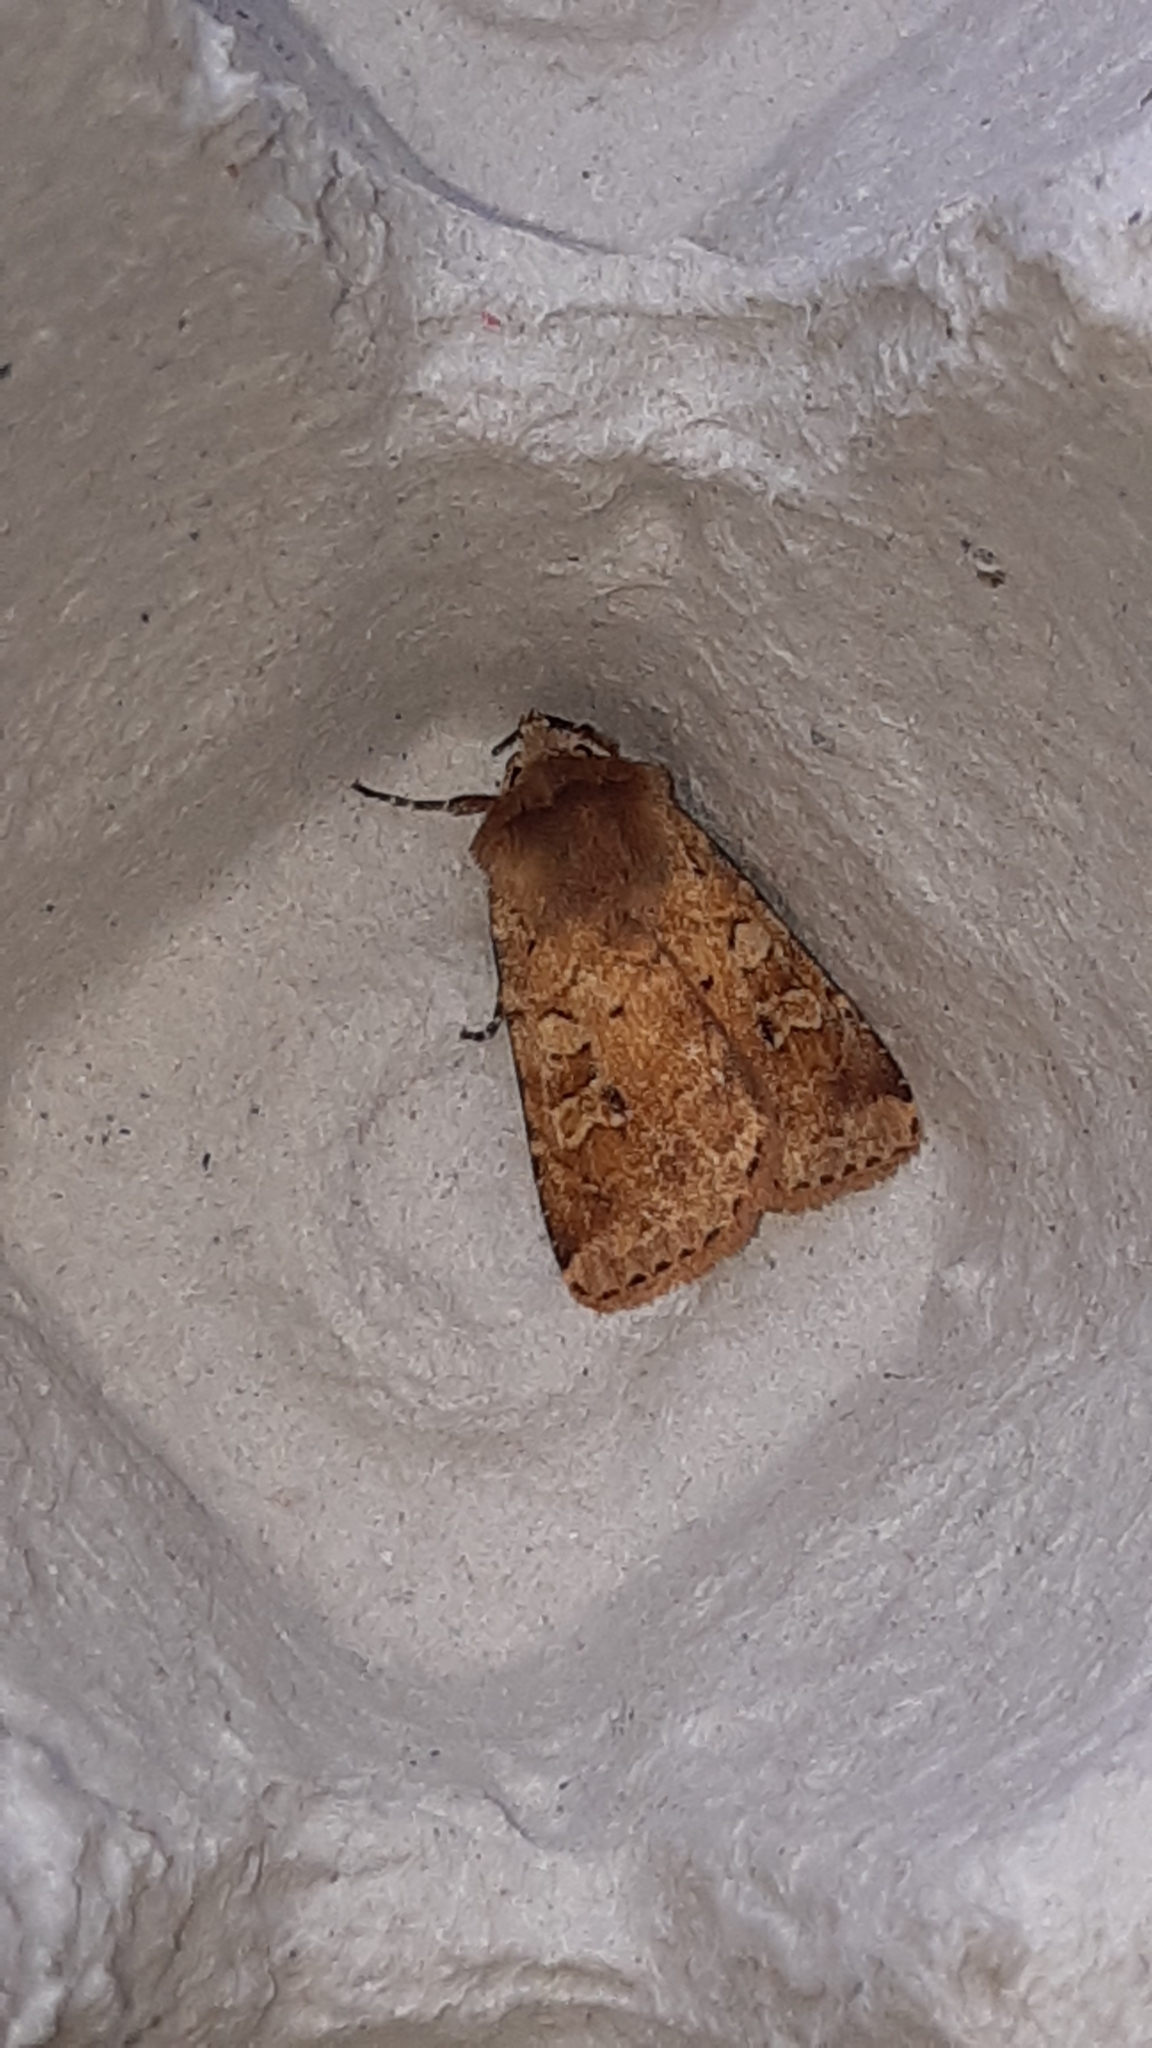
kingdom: Animalia
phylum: Arthropoda
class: Insecta
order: Lepidoptera
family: Noctuidae
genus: Diarsia
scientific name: Diarsia mendica
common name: Ingrailed clay
